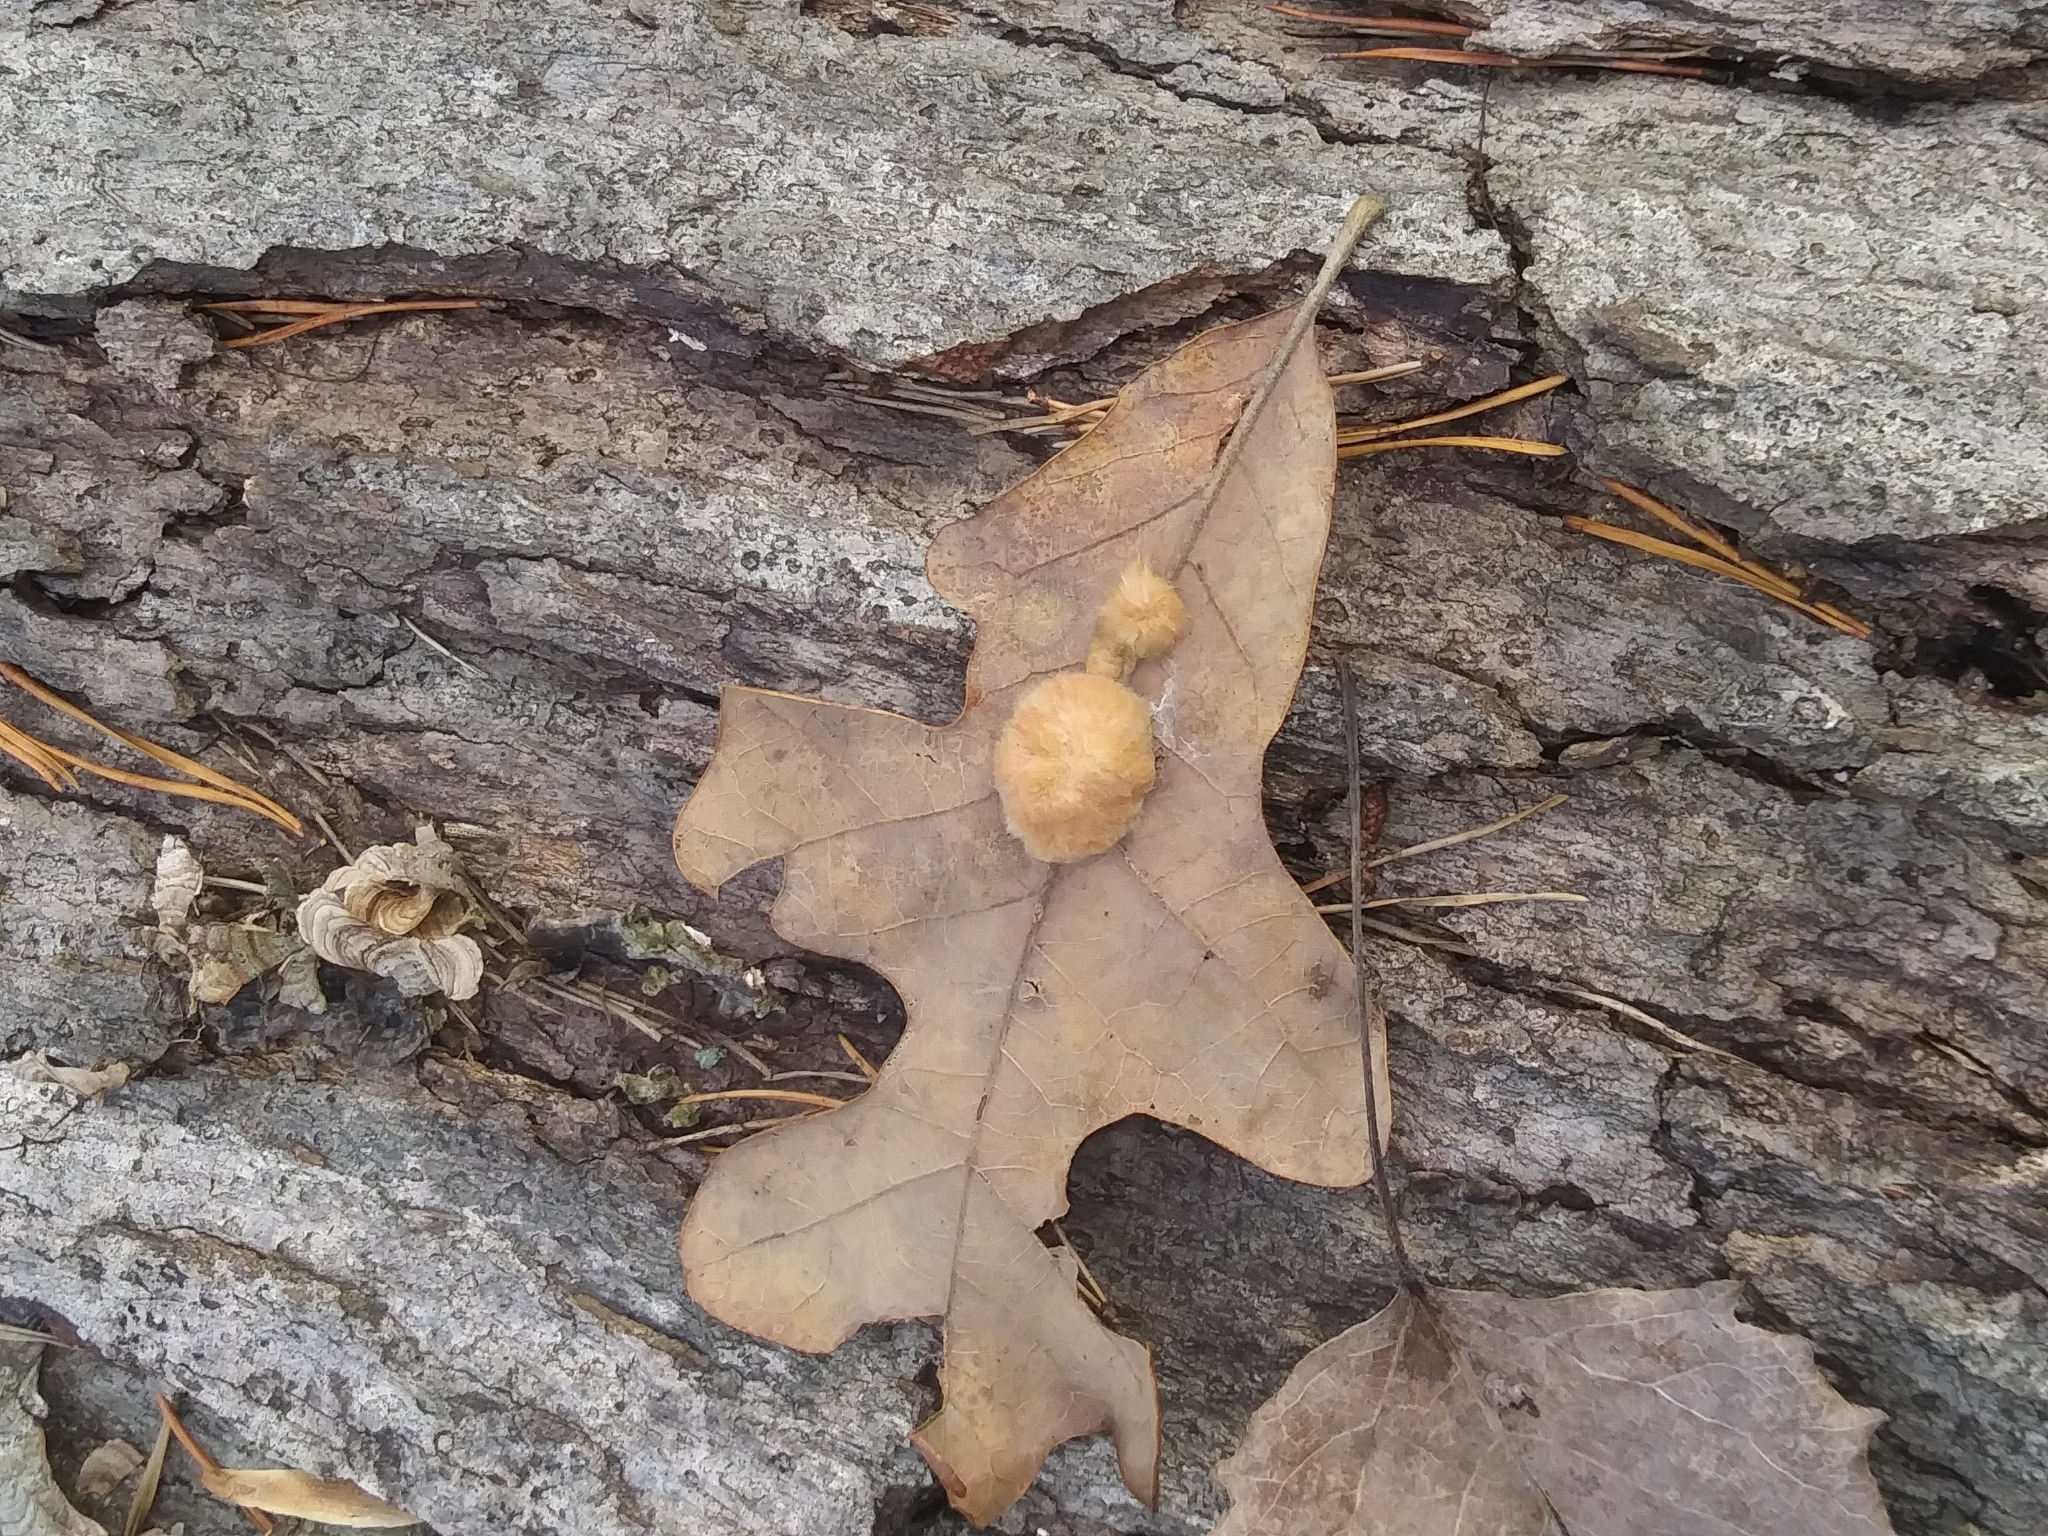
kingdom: Animalia
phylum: Arthropoda
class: Insecta
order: Hymenoptera
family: Cynipidae
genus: Andricus
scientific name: Andricus Druon pattoni
